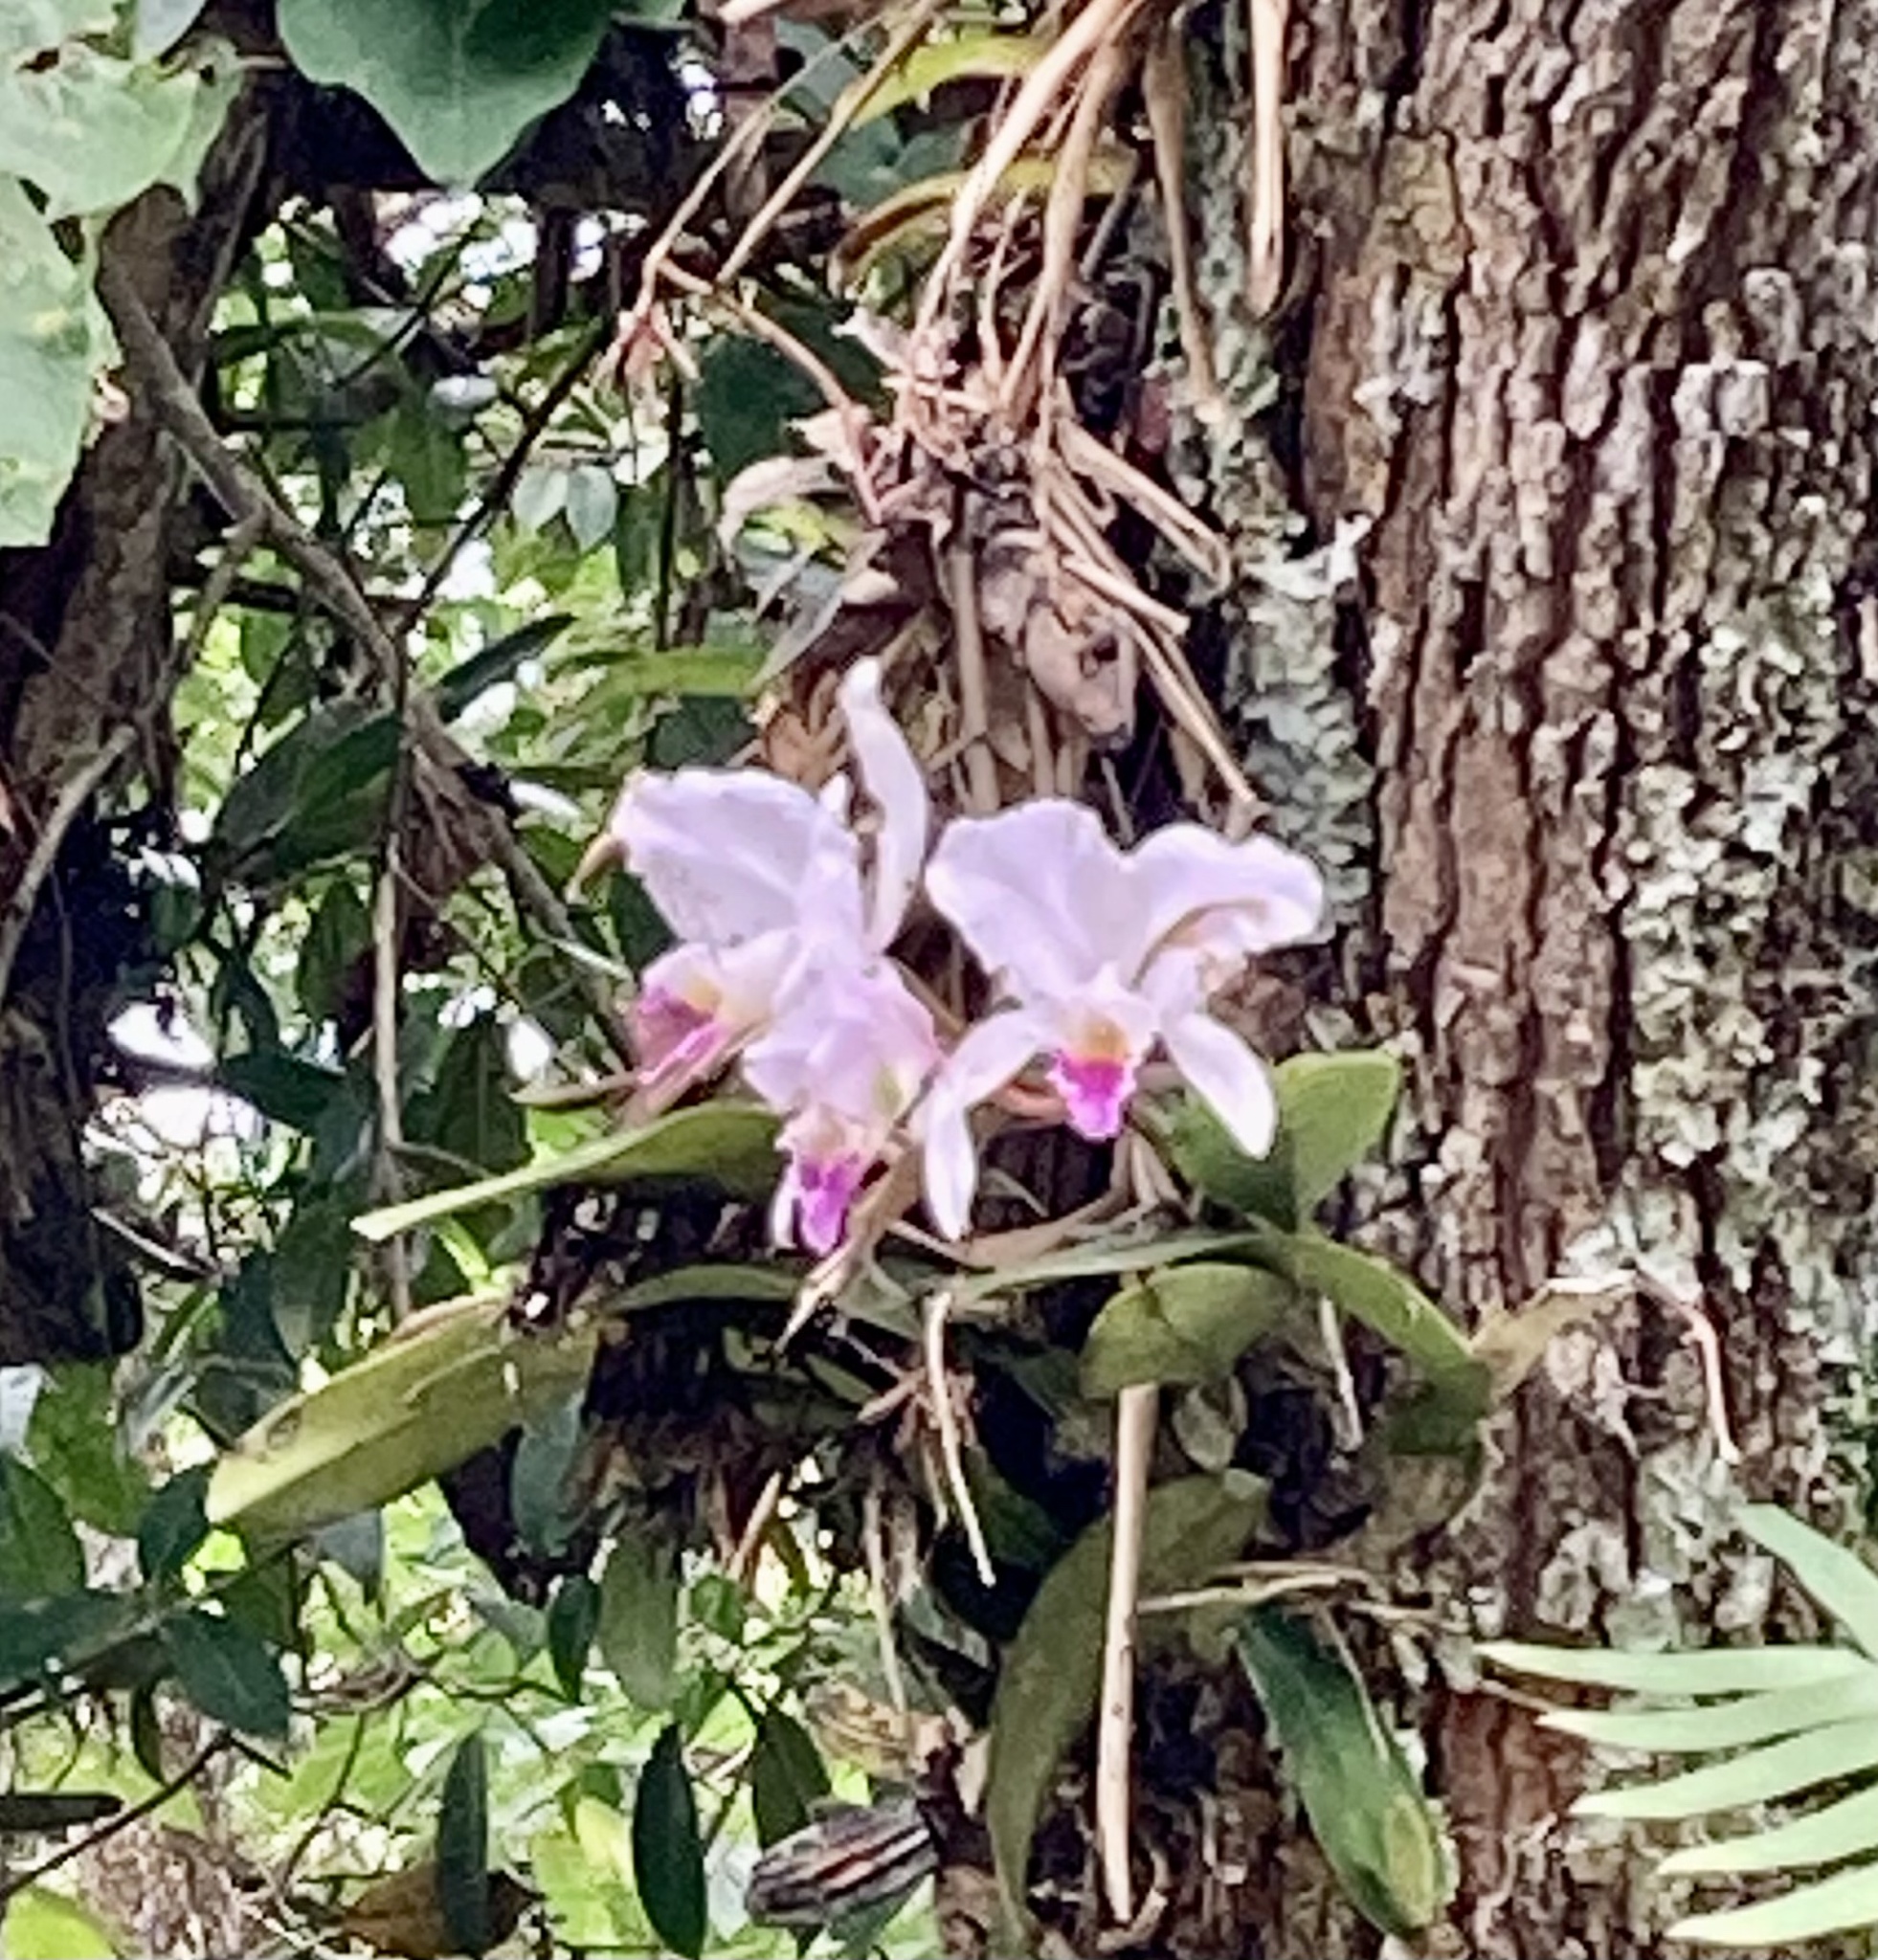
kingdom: Plantae
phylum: Tracheophyta
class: Liliopsida
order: Asparagales
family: Orchidaceae
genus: Cattleya
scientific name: Cattleya trianae
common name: Christmas orchid
